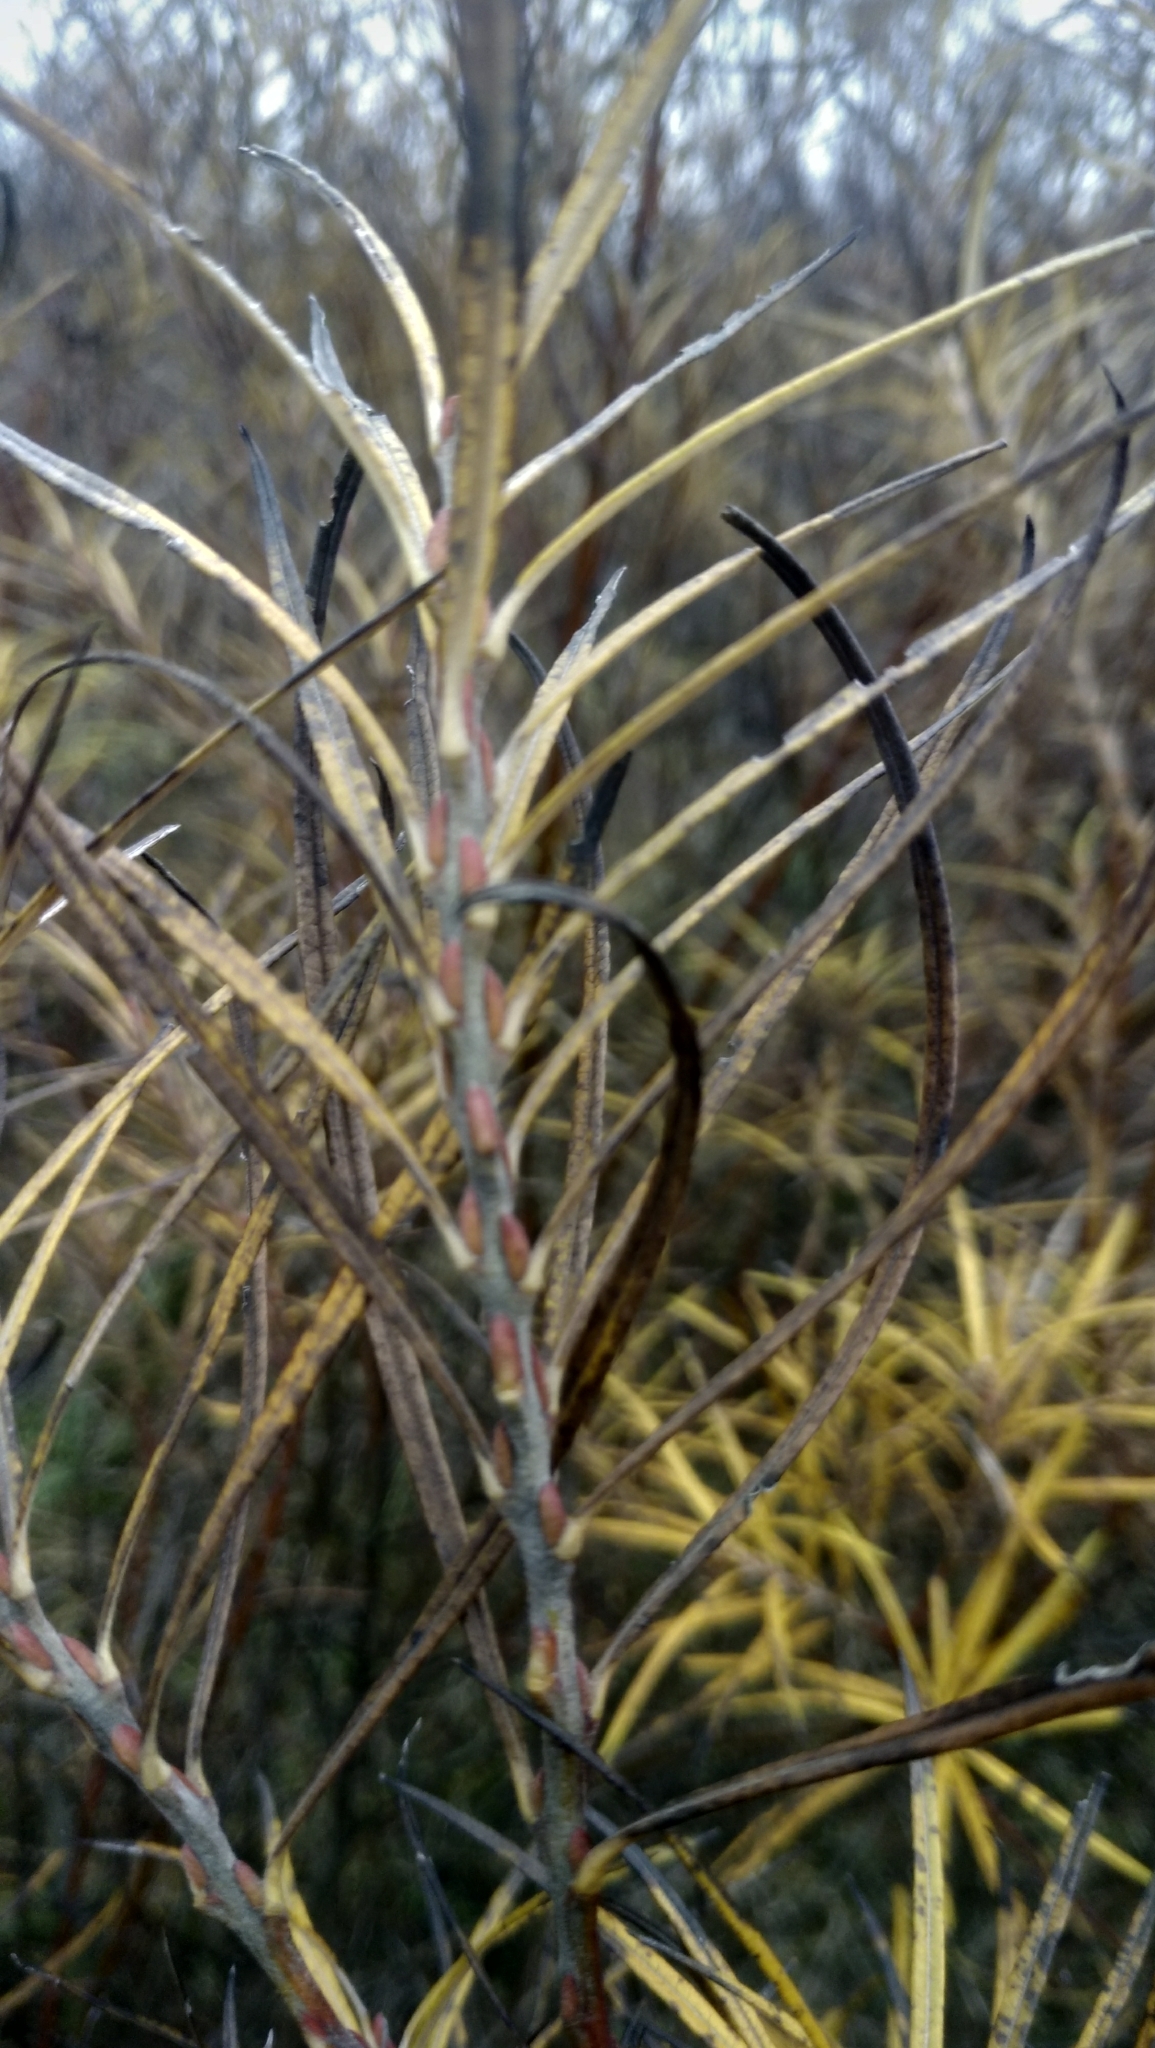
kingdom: Plantae
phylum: Tracheophyta
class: Magnoliopsida
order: Malpighiales
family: Salicaceae
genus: Salix
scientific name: Salix viminalis
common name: Osier
